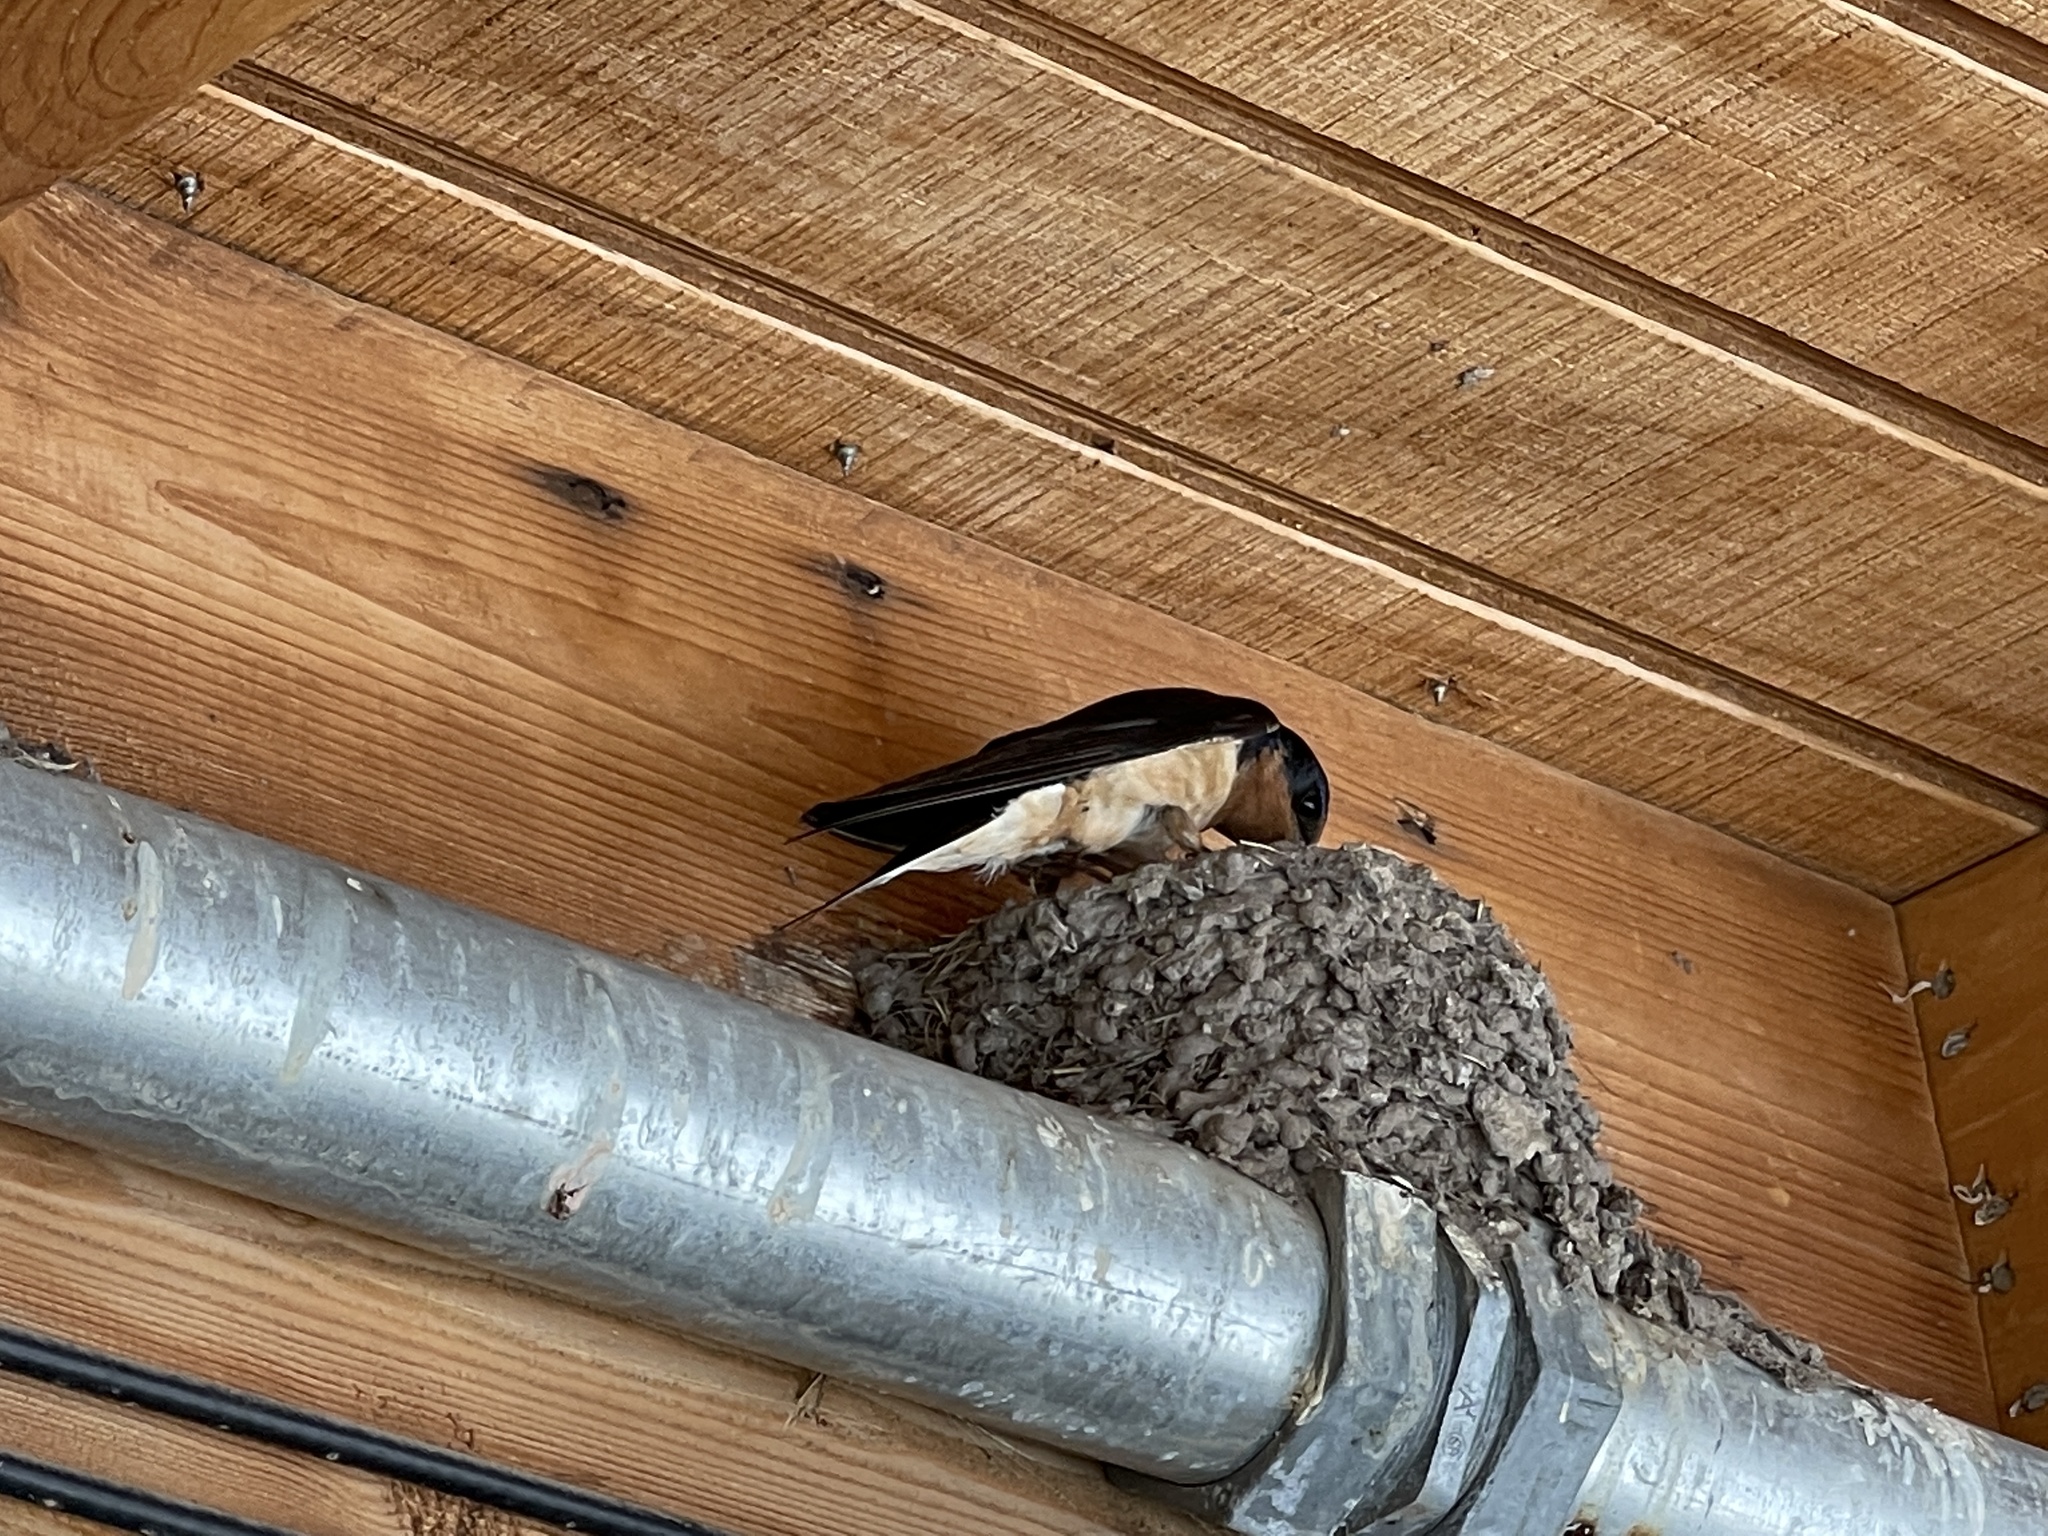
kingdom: Animalia
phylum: Chordata
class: Aves
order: Passeriformes
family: Hirundinidae
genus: Hirundo
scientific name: Hirundo rustica
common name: Barn swallow
